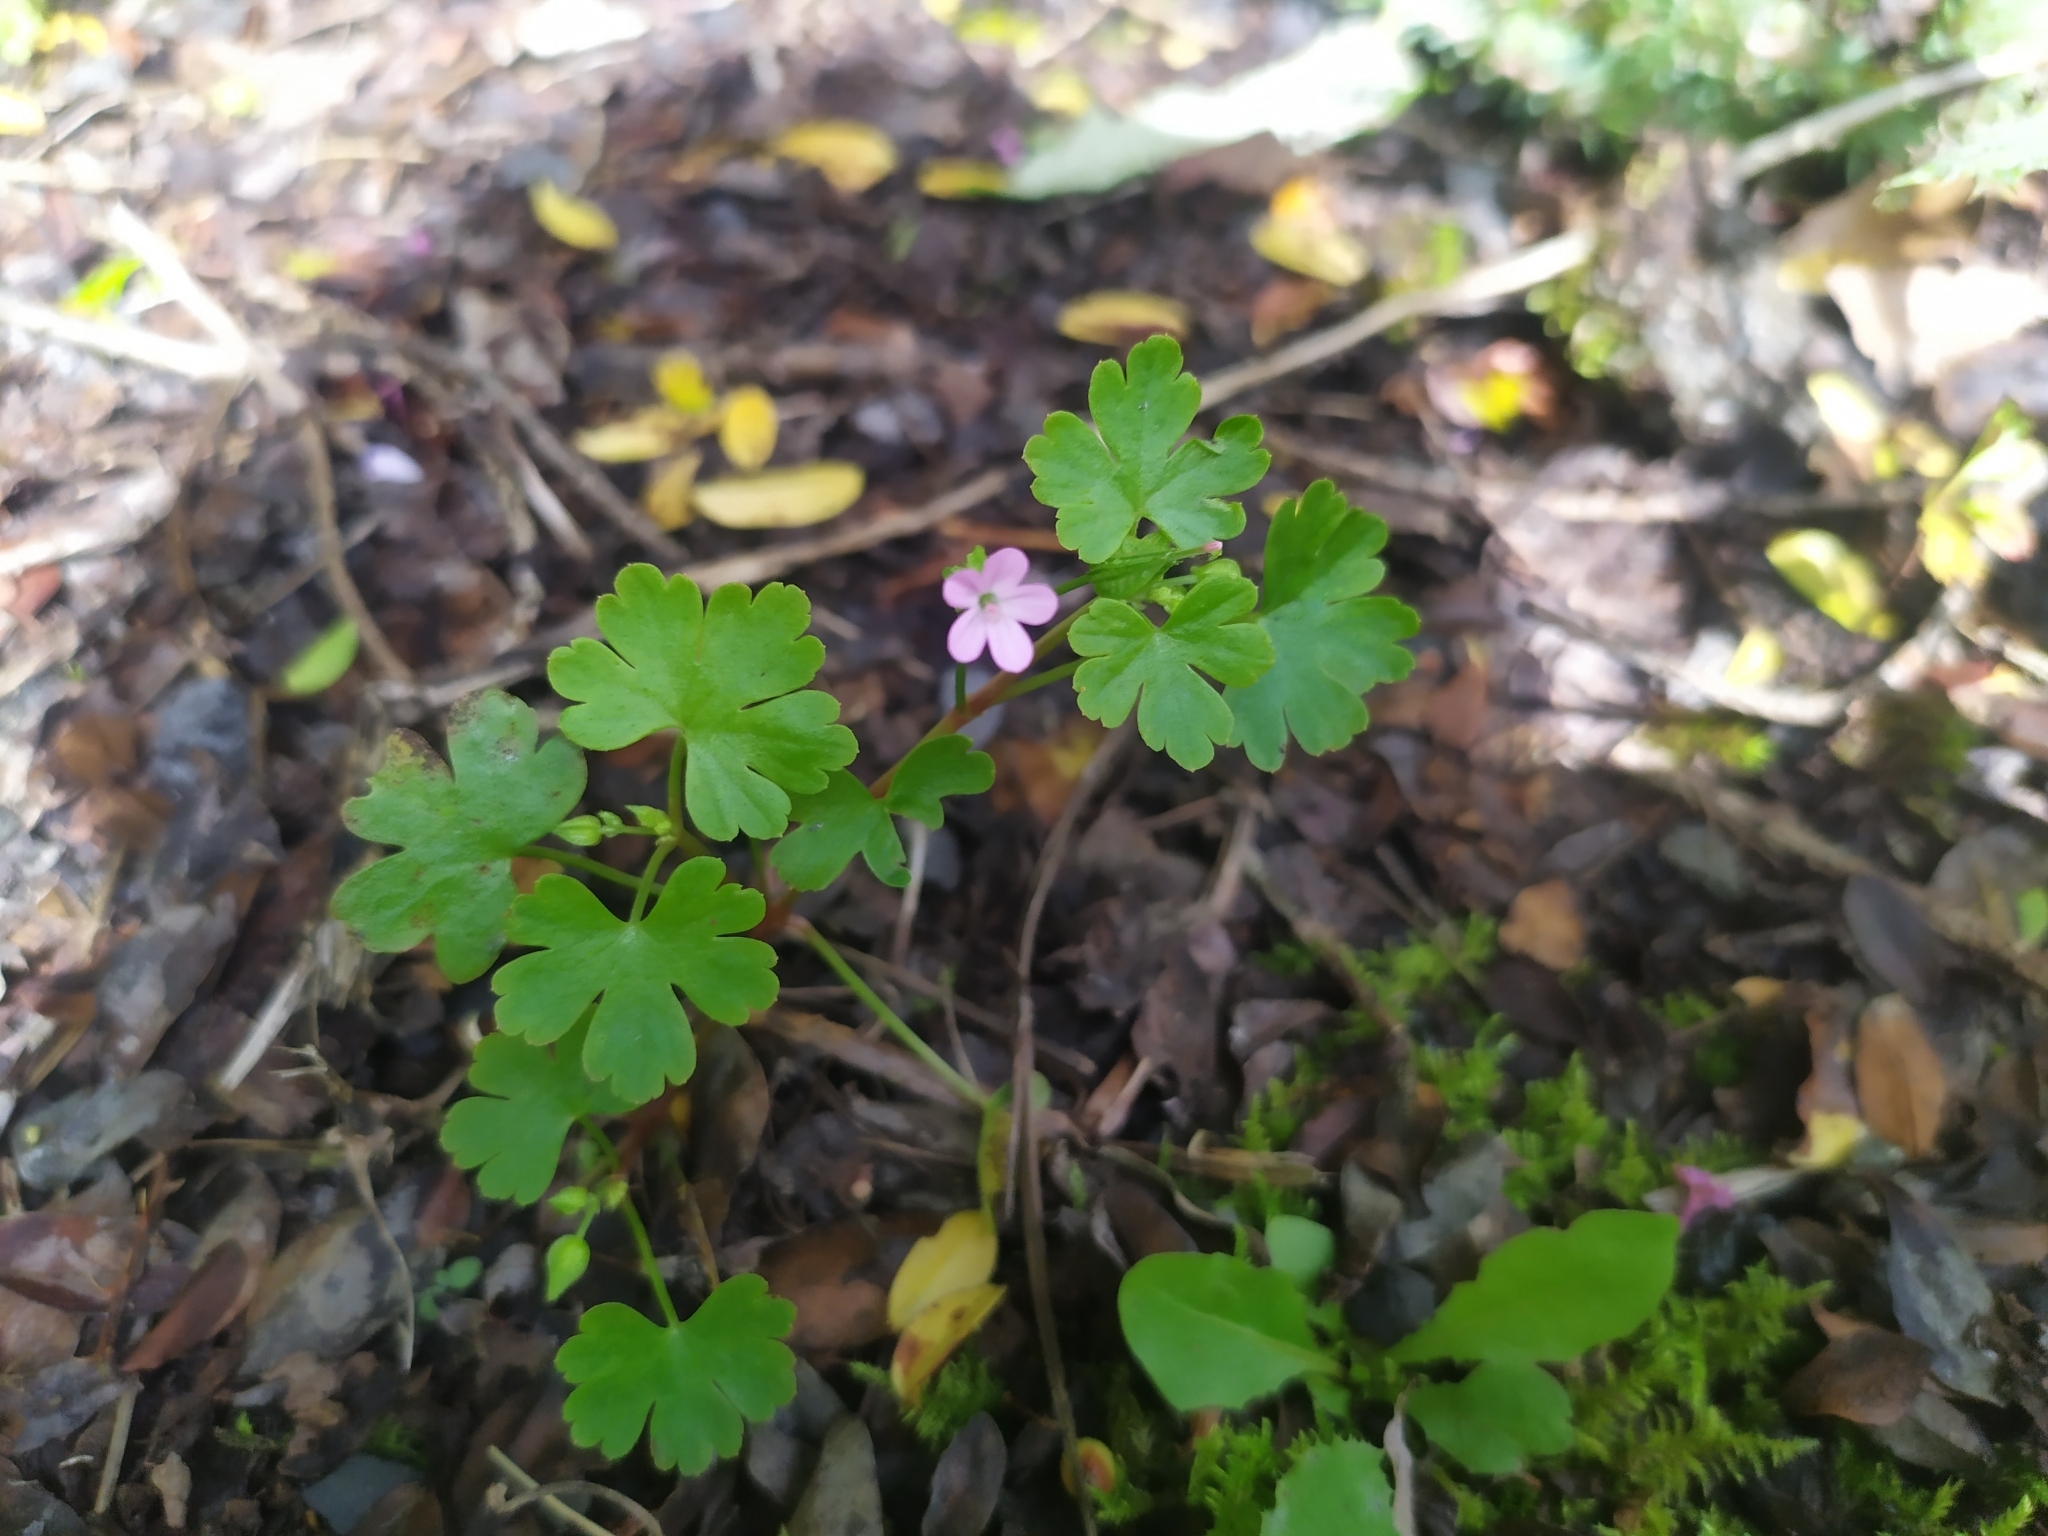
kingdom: Plantae
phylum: Tracheophyta
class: Magnoliopsida
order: Geraniales
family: Geraniaceae
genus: Geranium
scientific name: Geranium lucidum
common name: Shining crane's-bill
